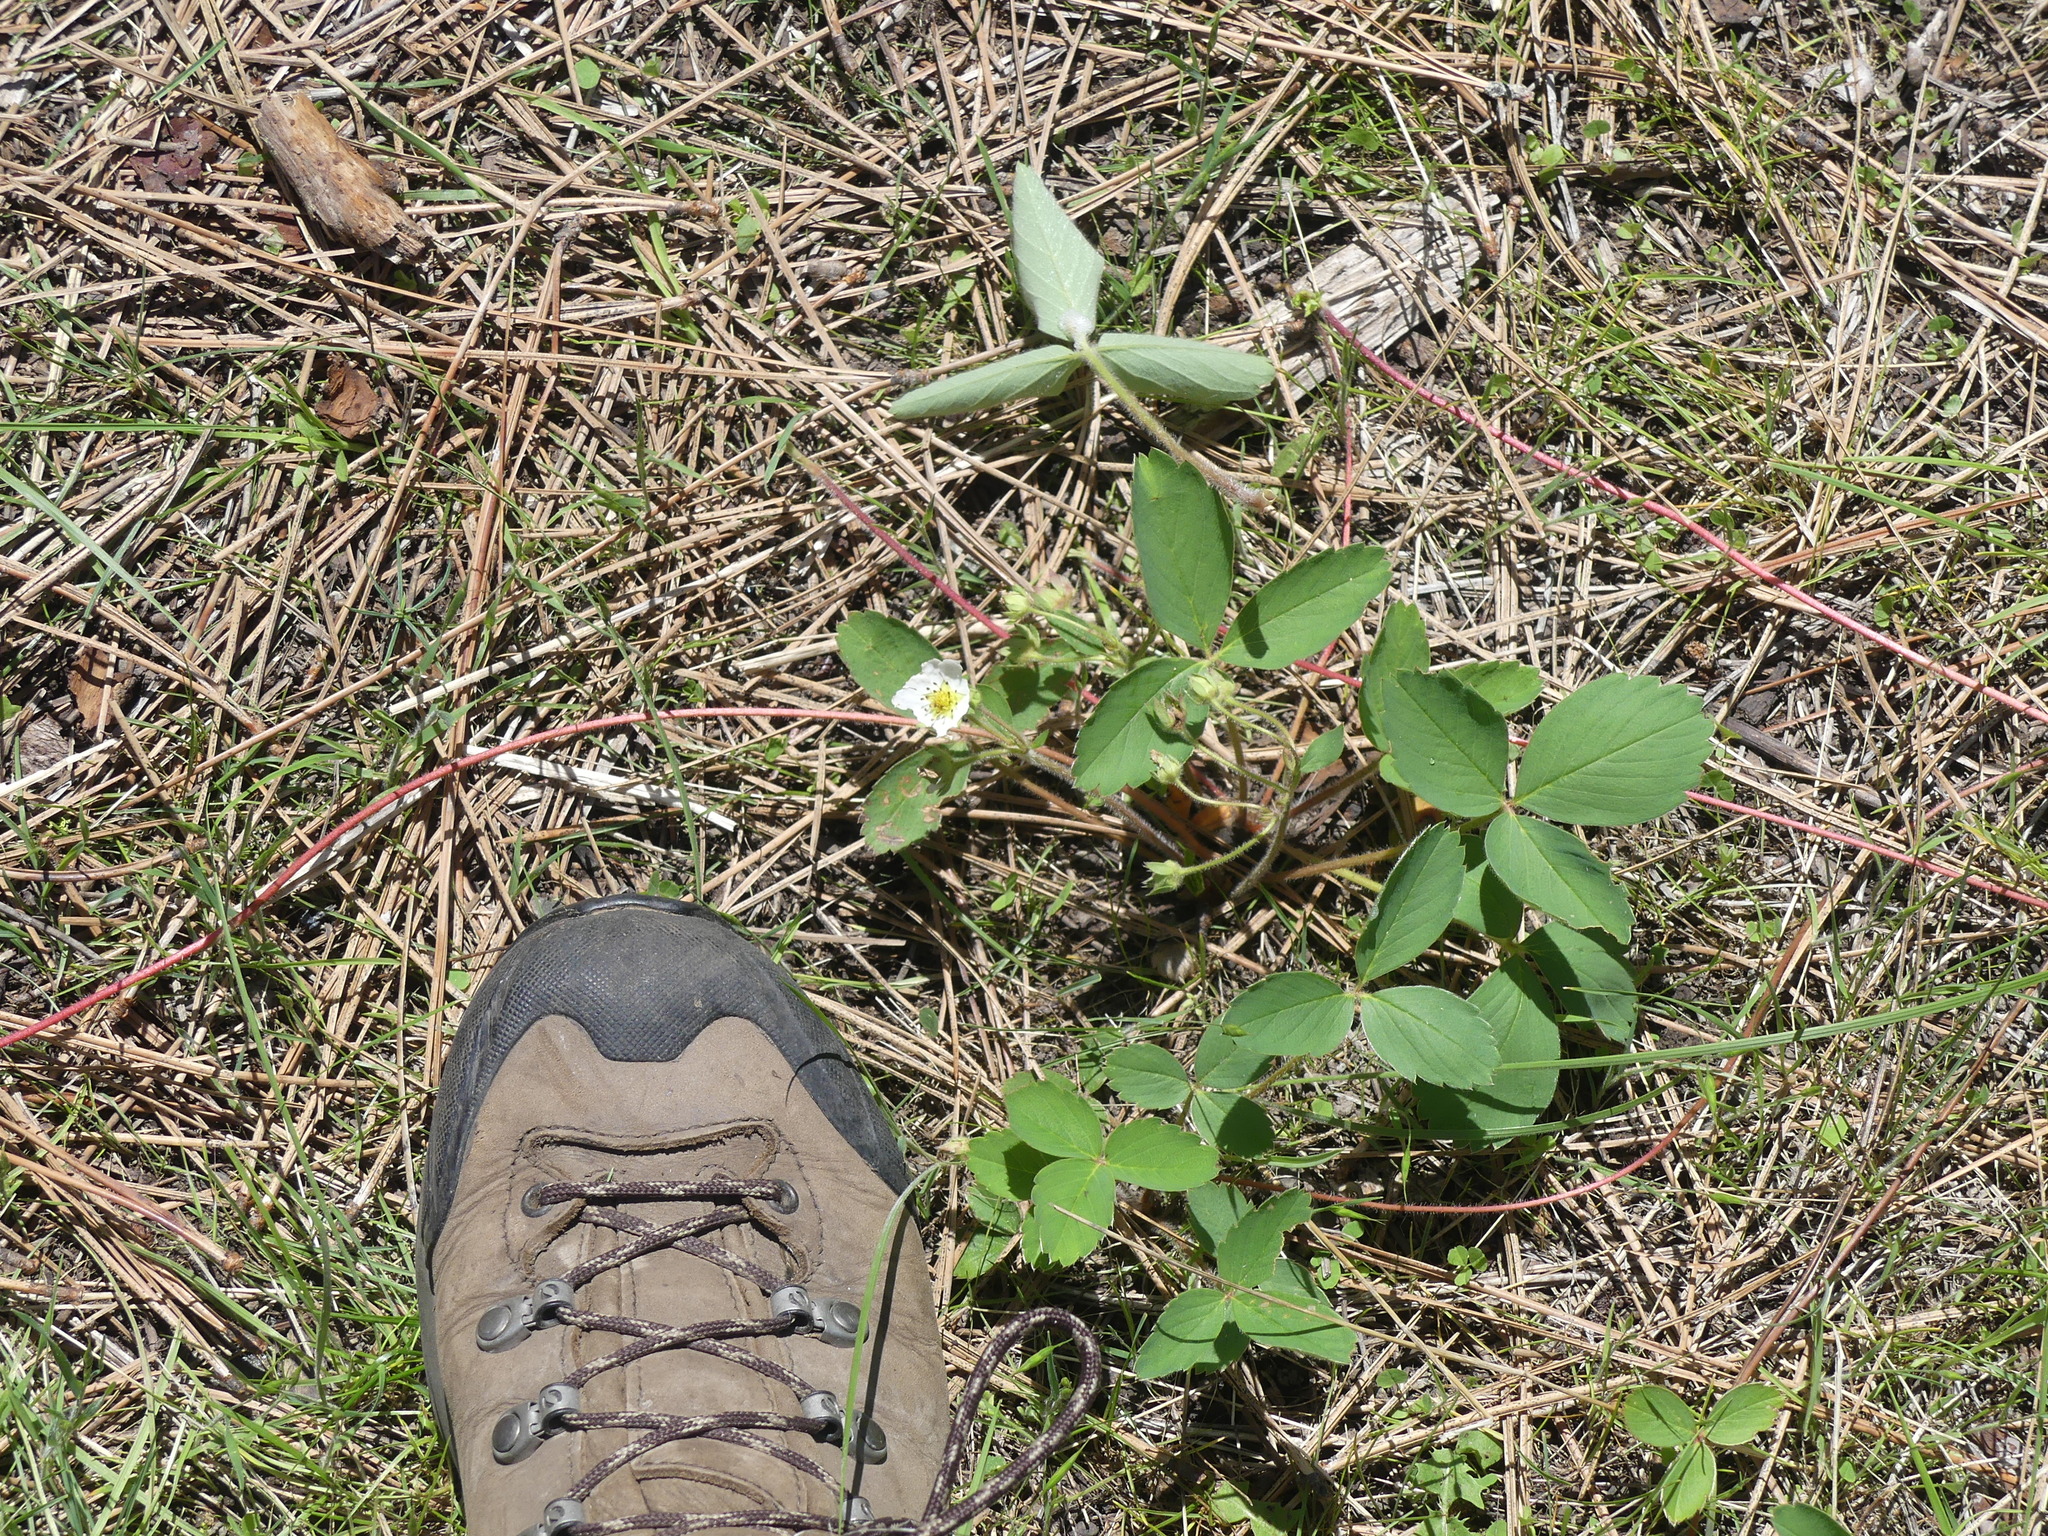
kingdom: Plantae
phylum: Tracheophyta
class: Magnoliopsida
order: Rosales
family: Rosaceae
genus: Fragaria
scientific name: Fragaria virginiana
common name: Thickleaved wild strawberry
